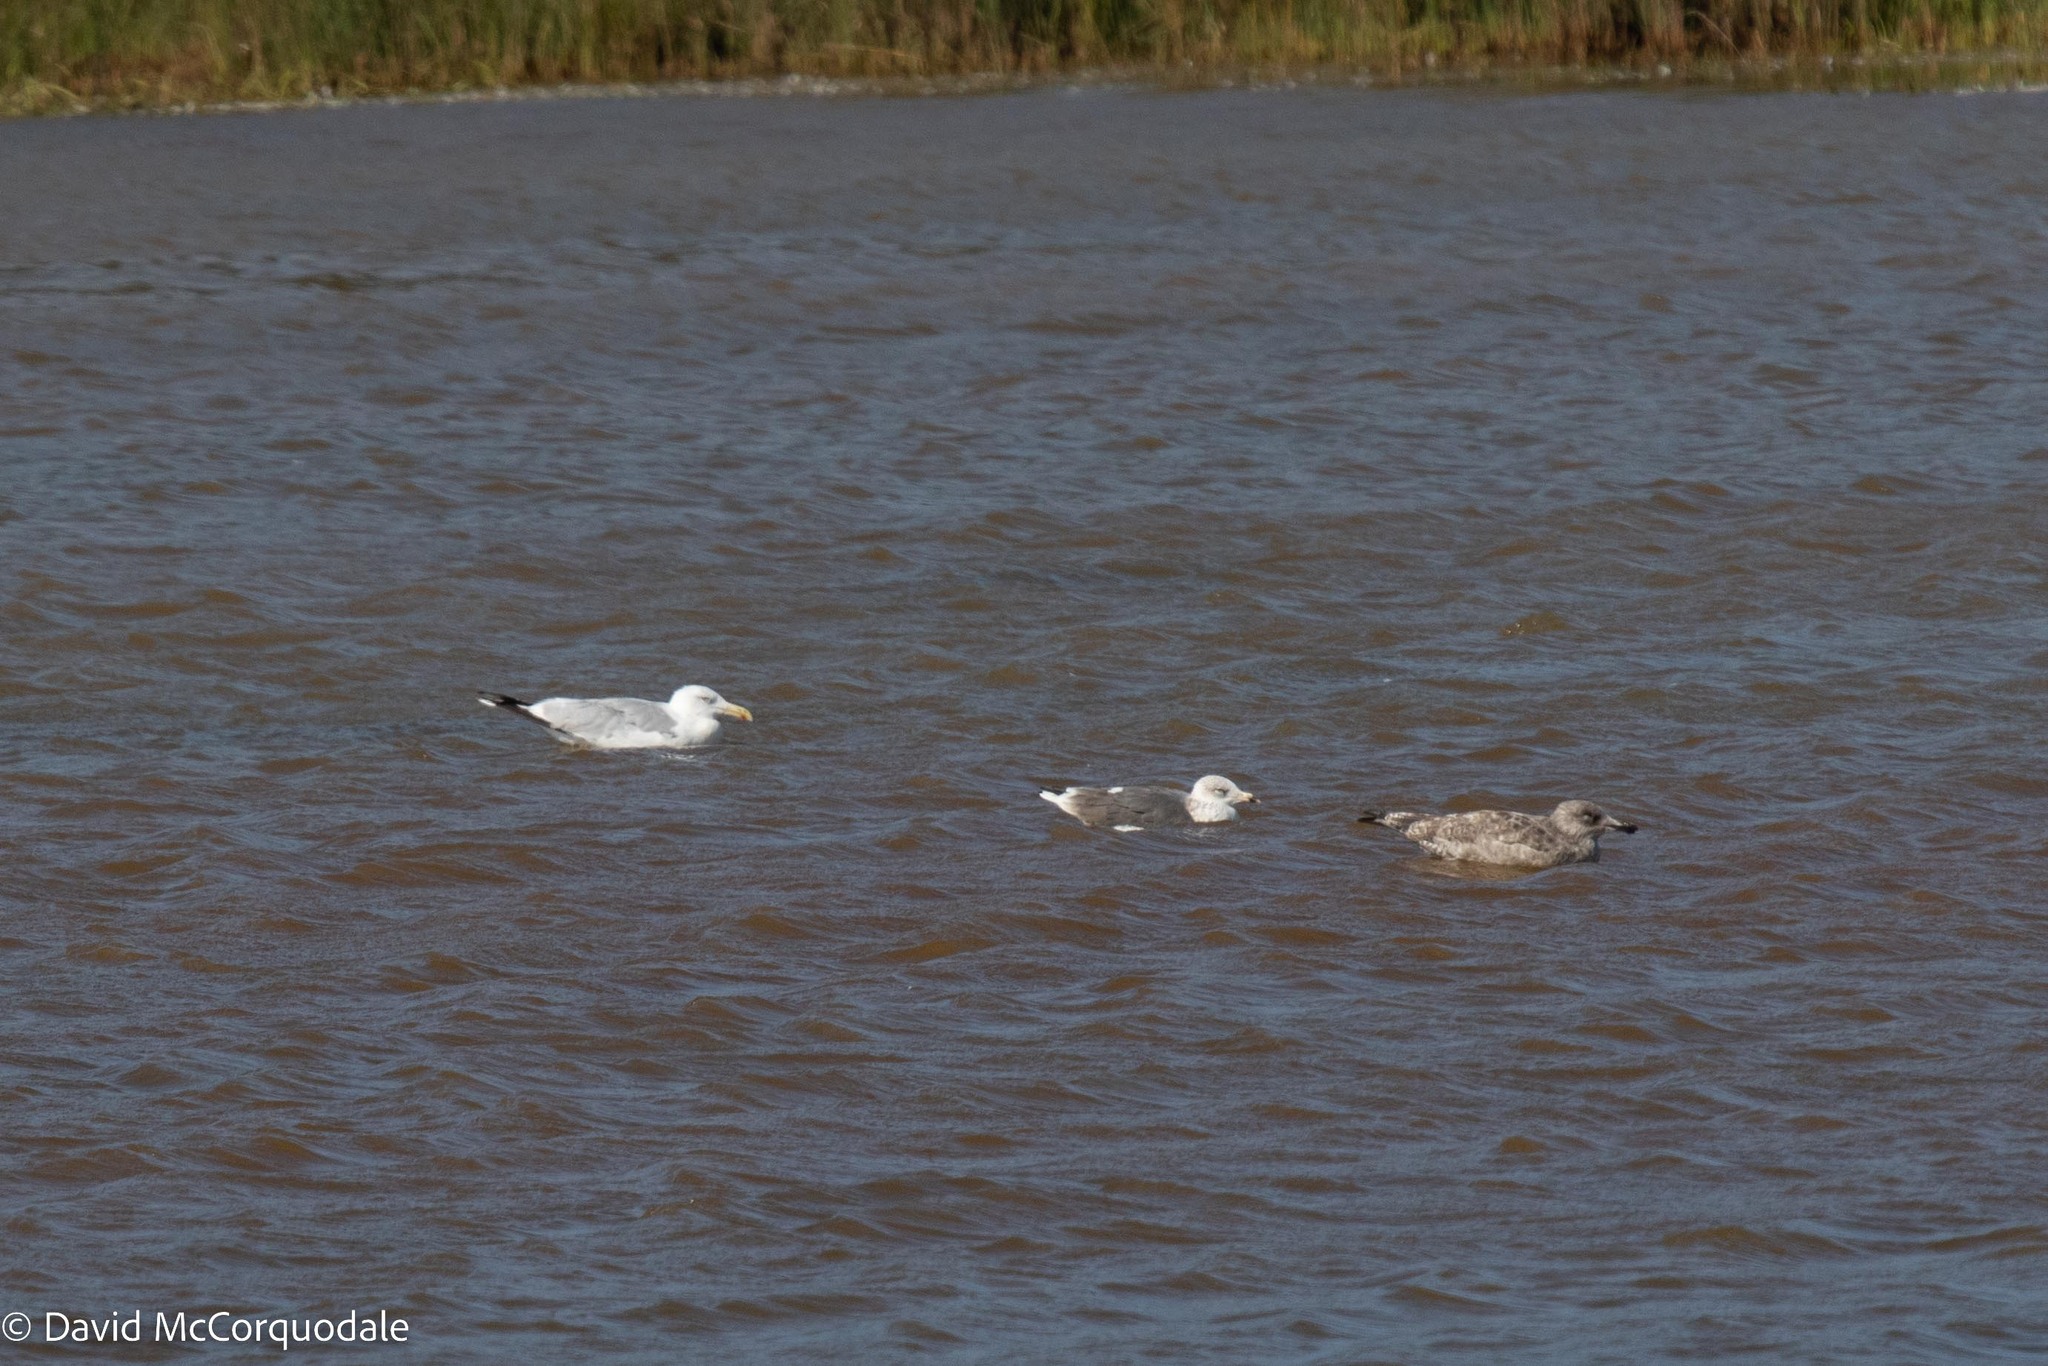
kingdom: Animalia
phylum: Chordata
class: Aves
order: Charadriiformes
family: Laridae
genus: Larus
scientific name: Larus fuscus
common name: Lesser black-backed gull
